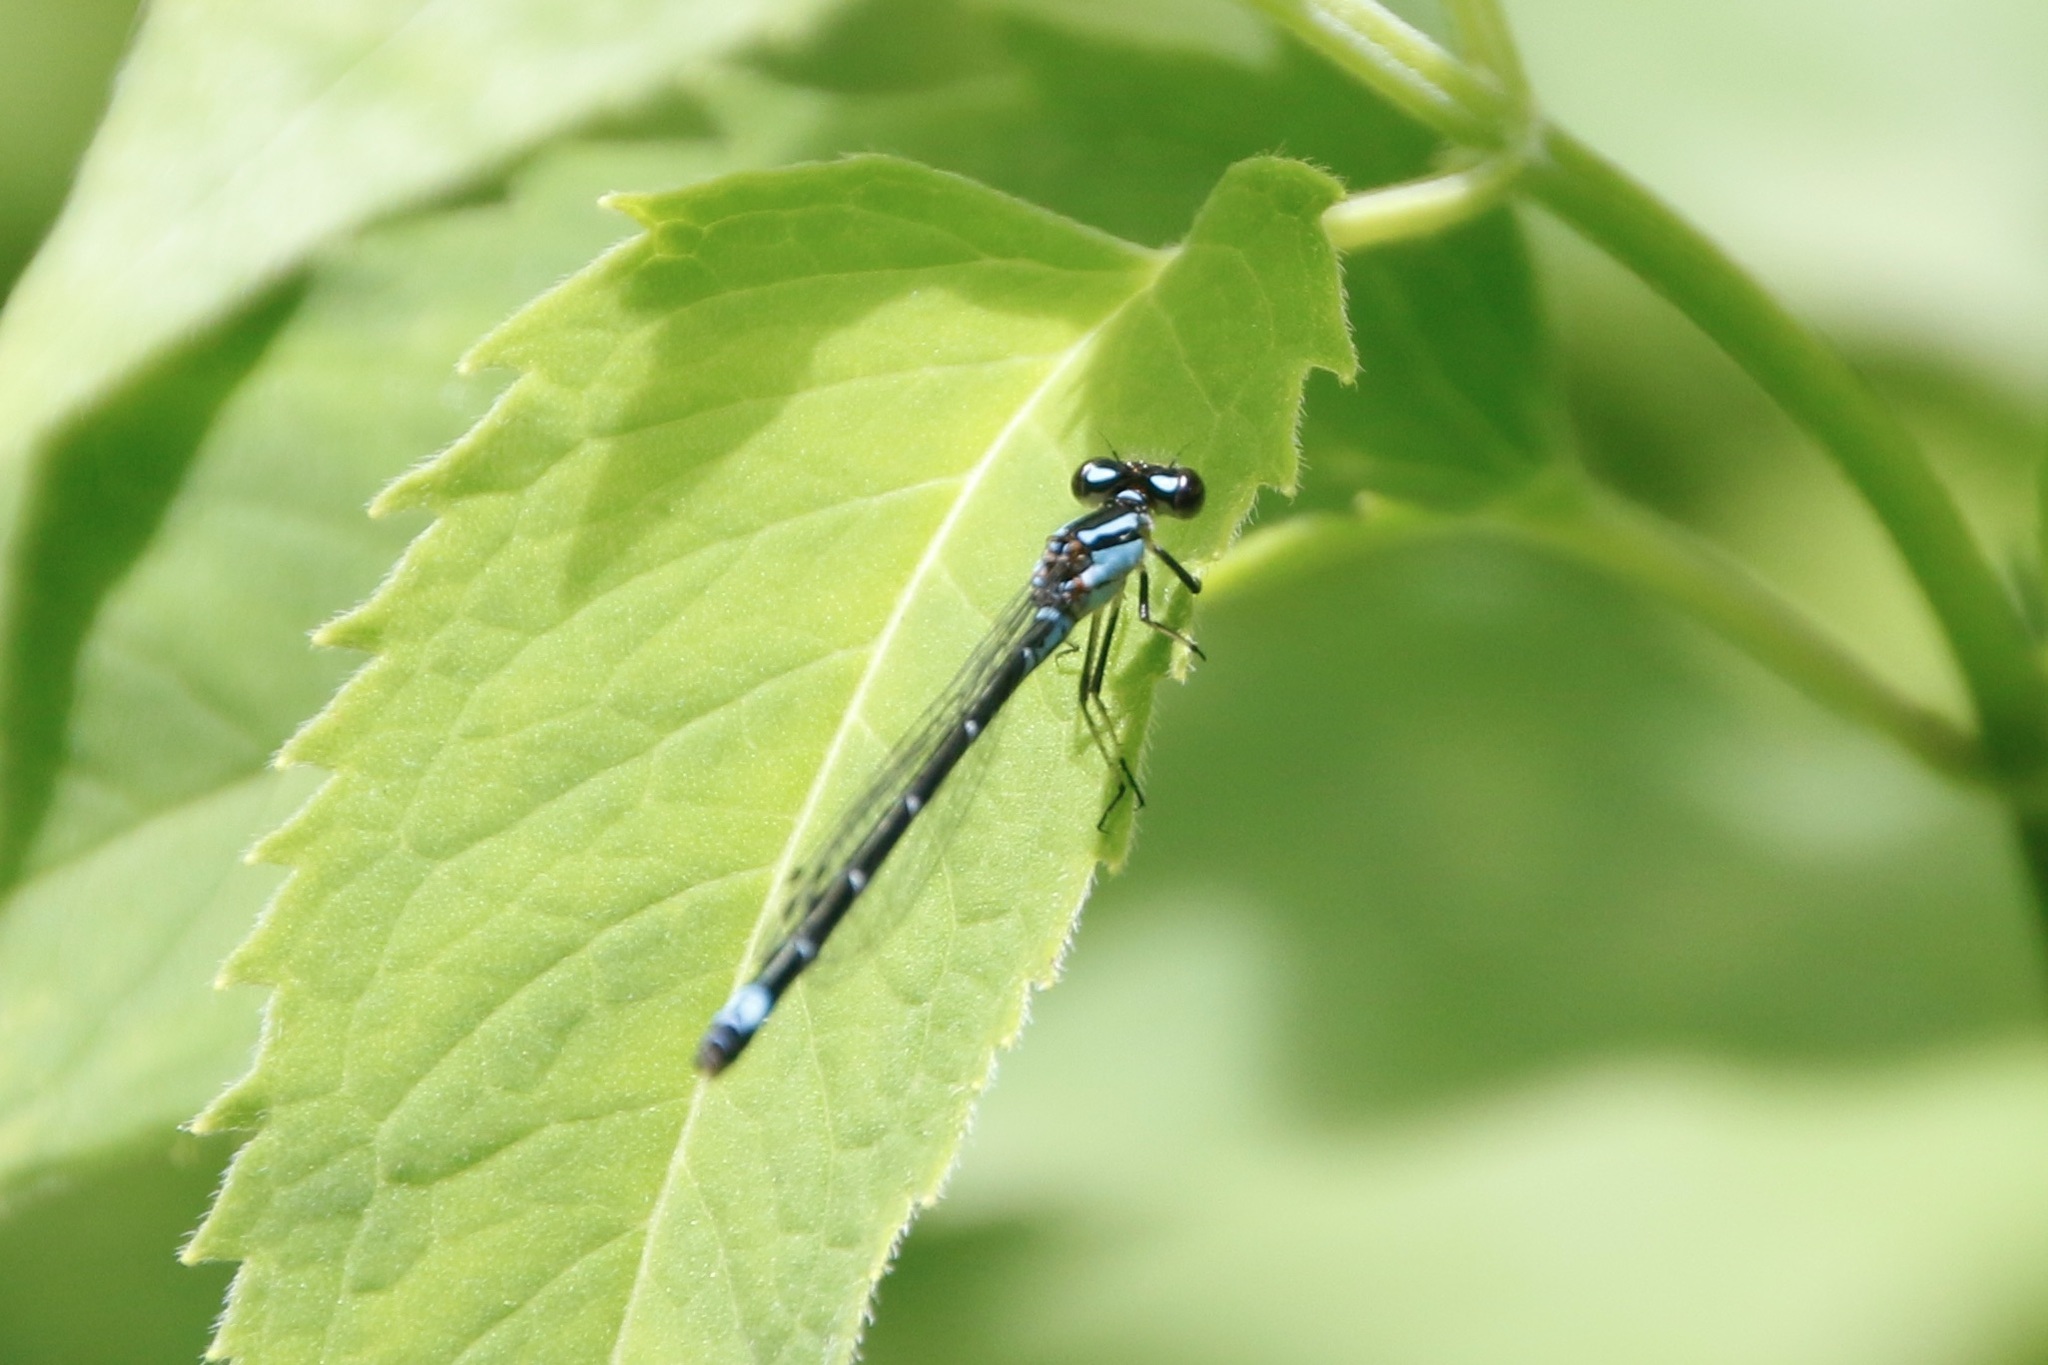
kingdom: Animalia
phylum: Arthropoda
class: Insecta
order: Odonata
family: Coenagrionidae
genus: Enallagma
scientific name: Enallagma geminatum
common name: Skimming bluet
